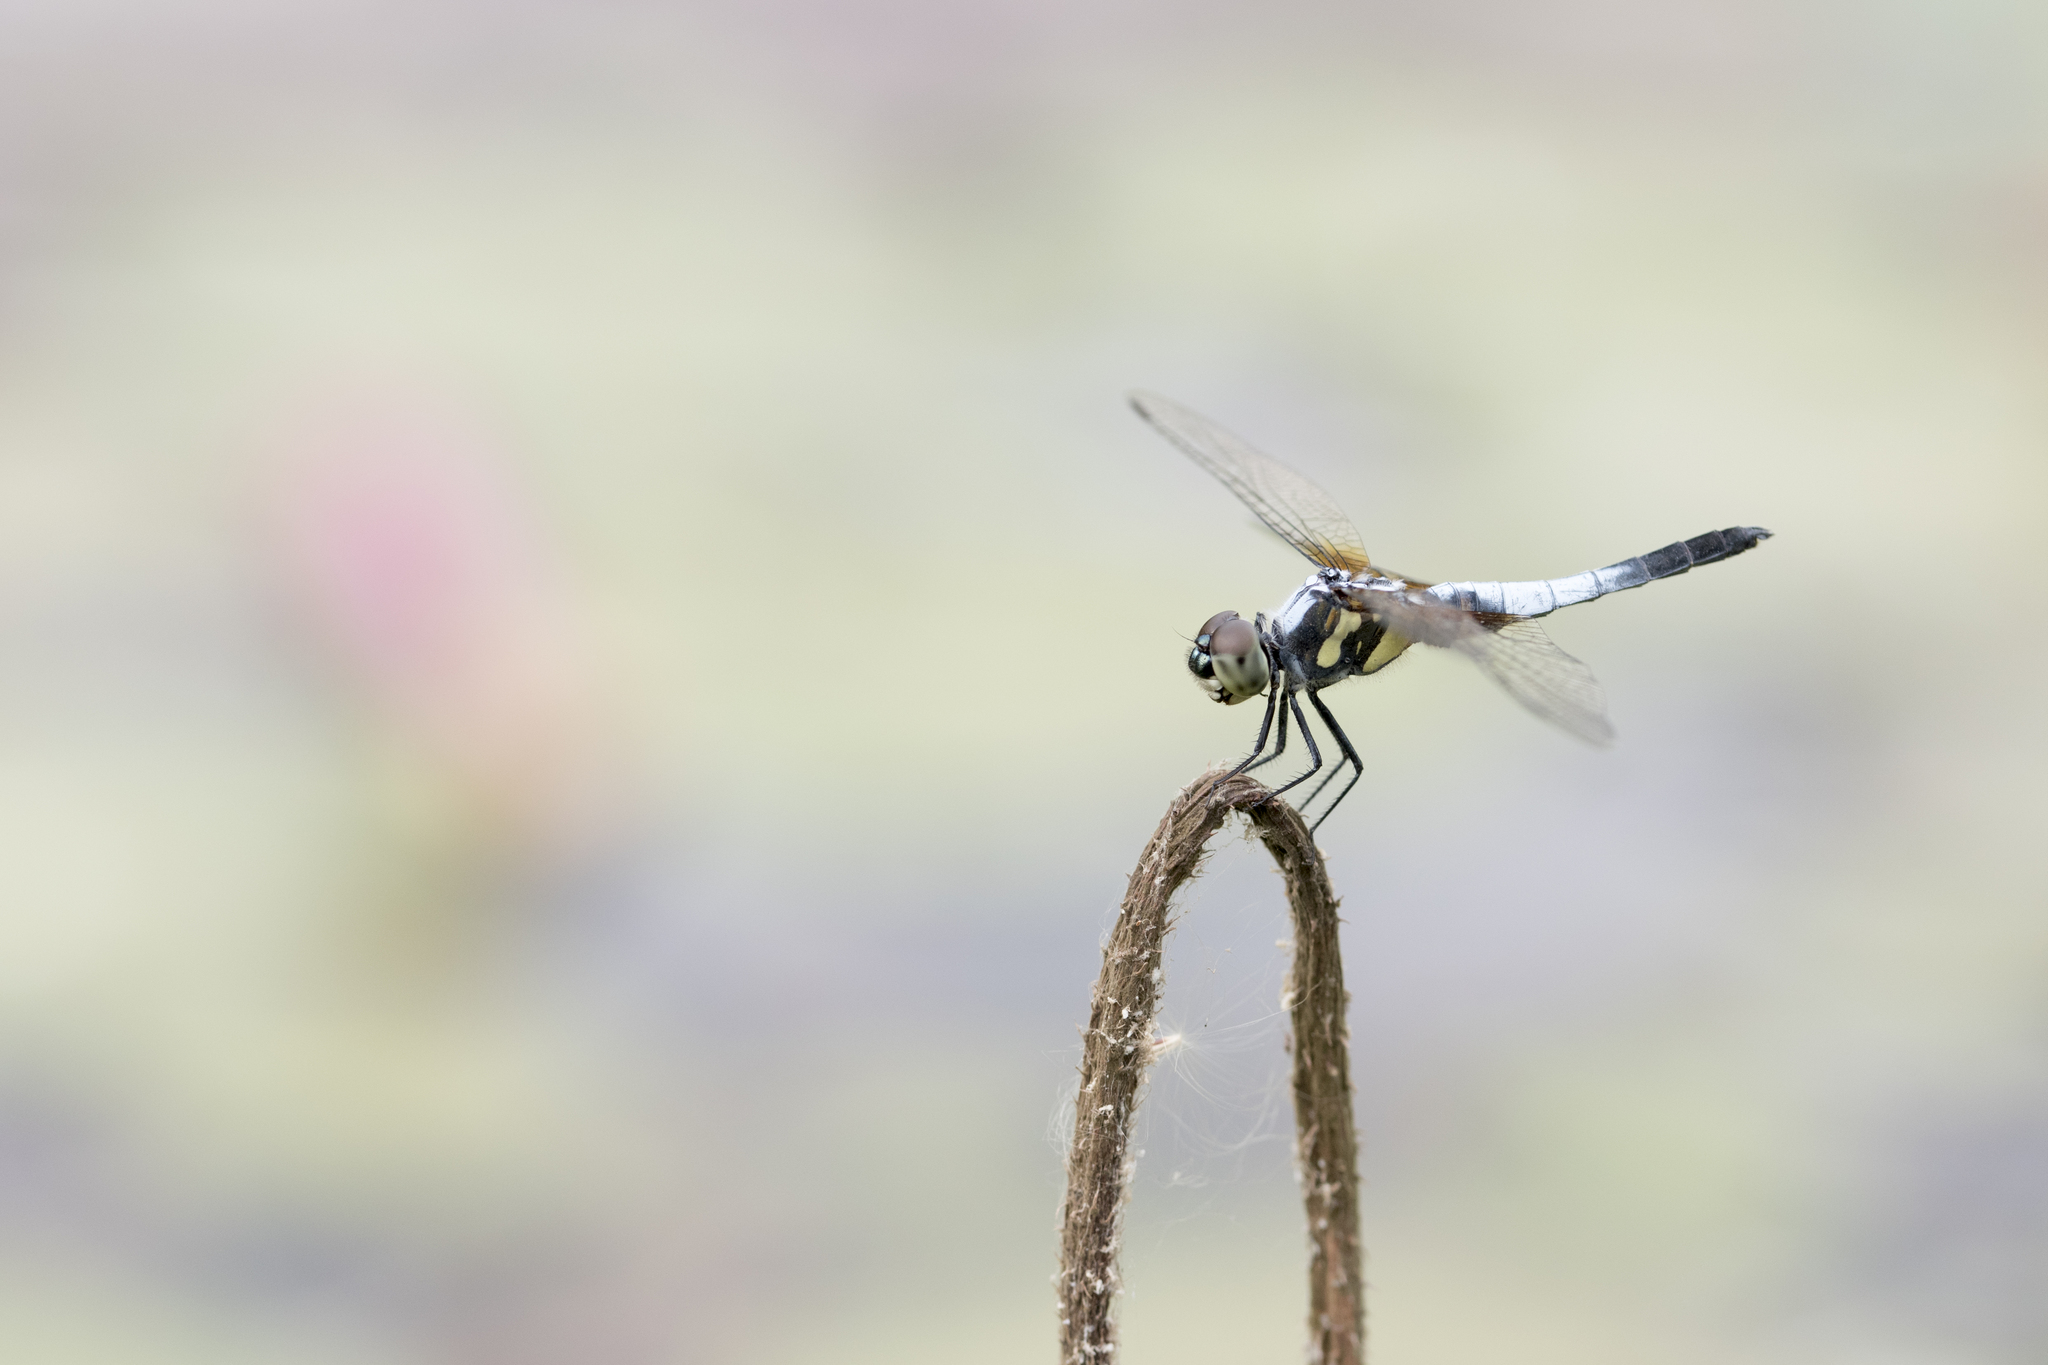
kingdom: Animalia
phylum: Arthropoda
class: Insecta
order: Odonata
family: Libellulidae
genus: Brachydiplax
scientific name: Brachydiplax chalybea
